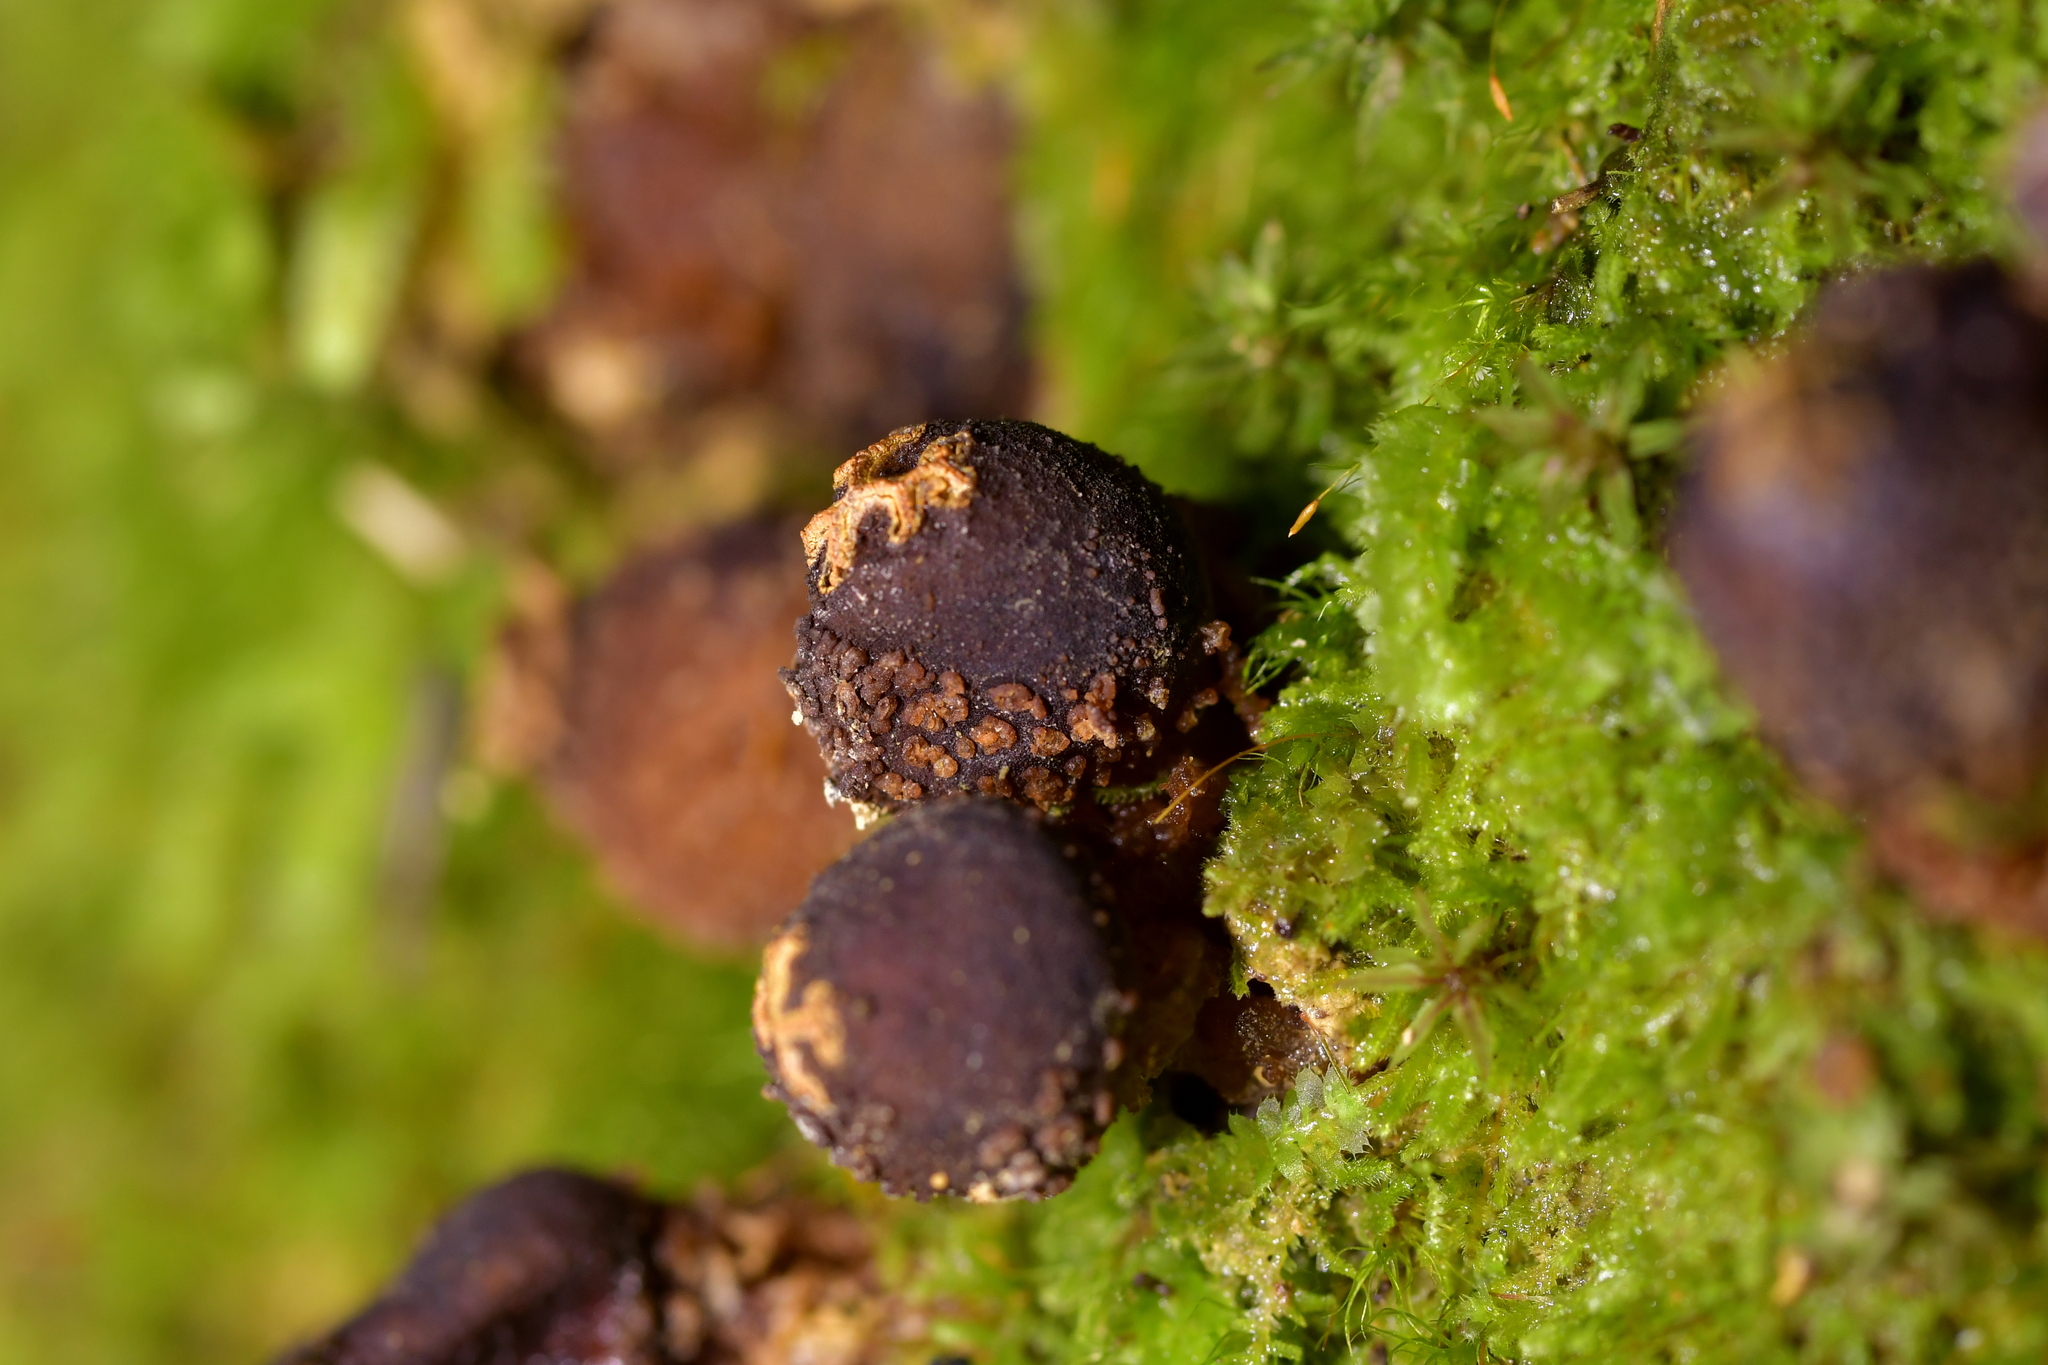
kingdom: Fungi
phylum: Basidiomycota
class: Agaricomycetes
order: Boletales
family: Calostomataceae
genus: Calostoma
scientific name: Calostoma rodwayi
